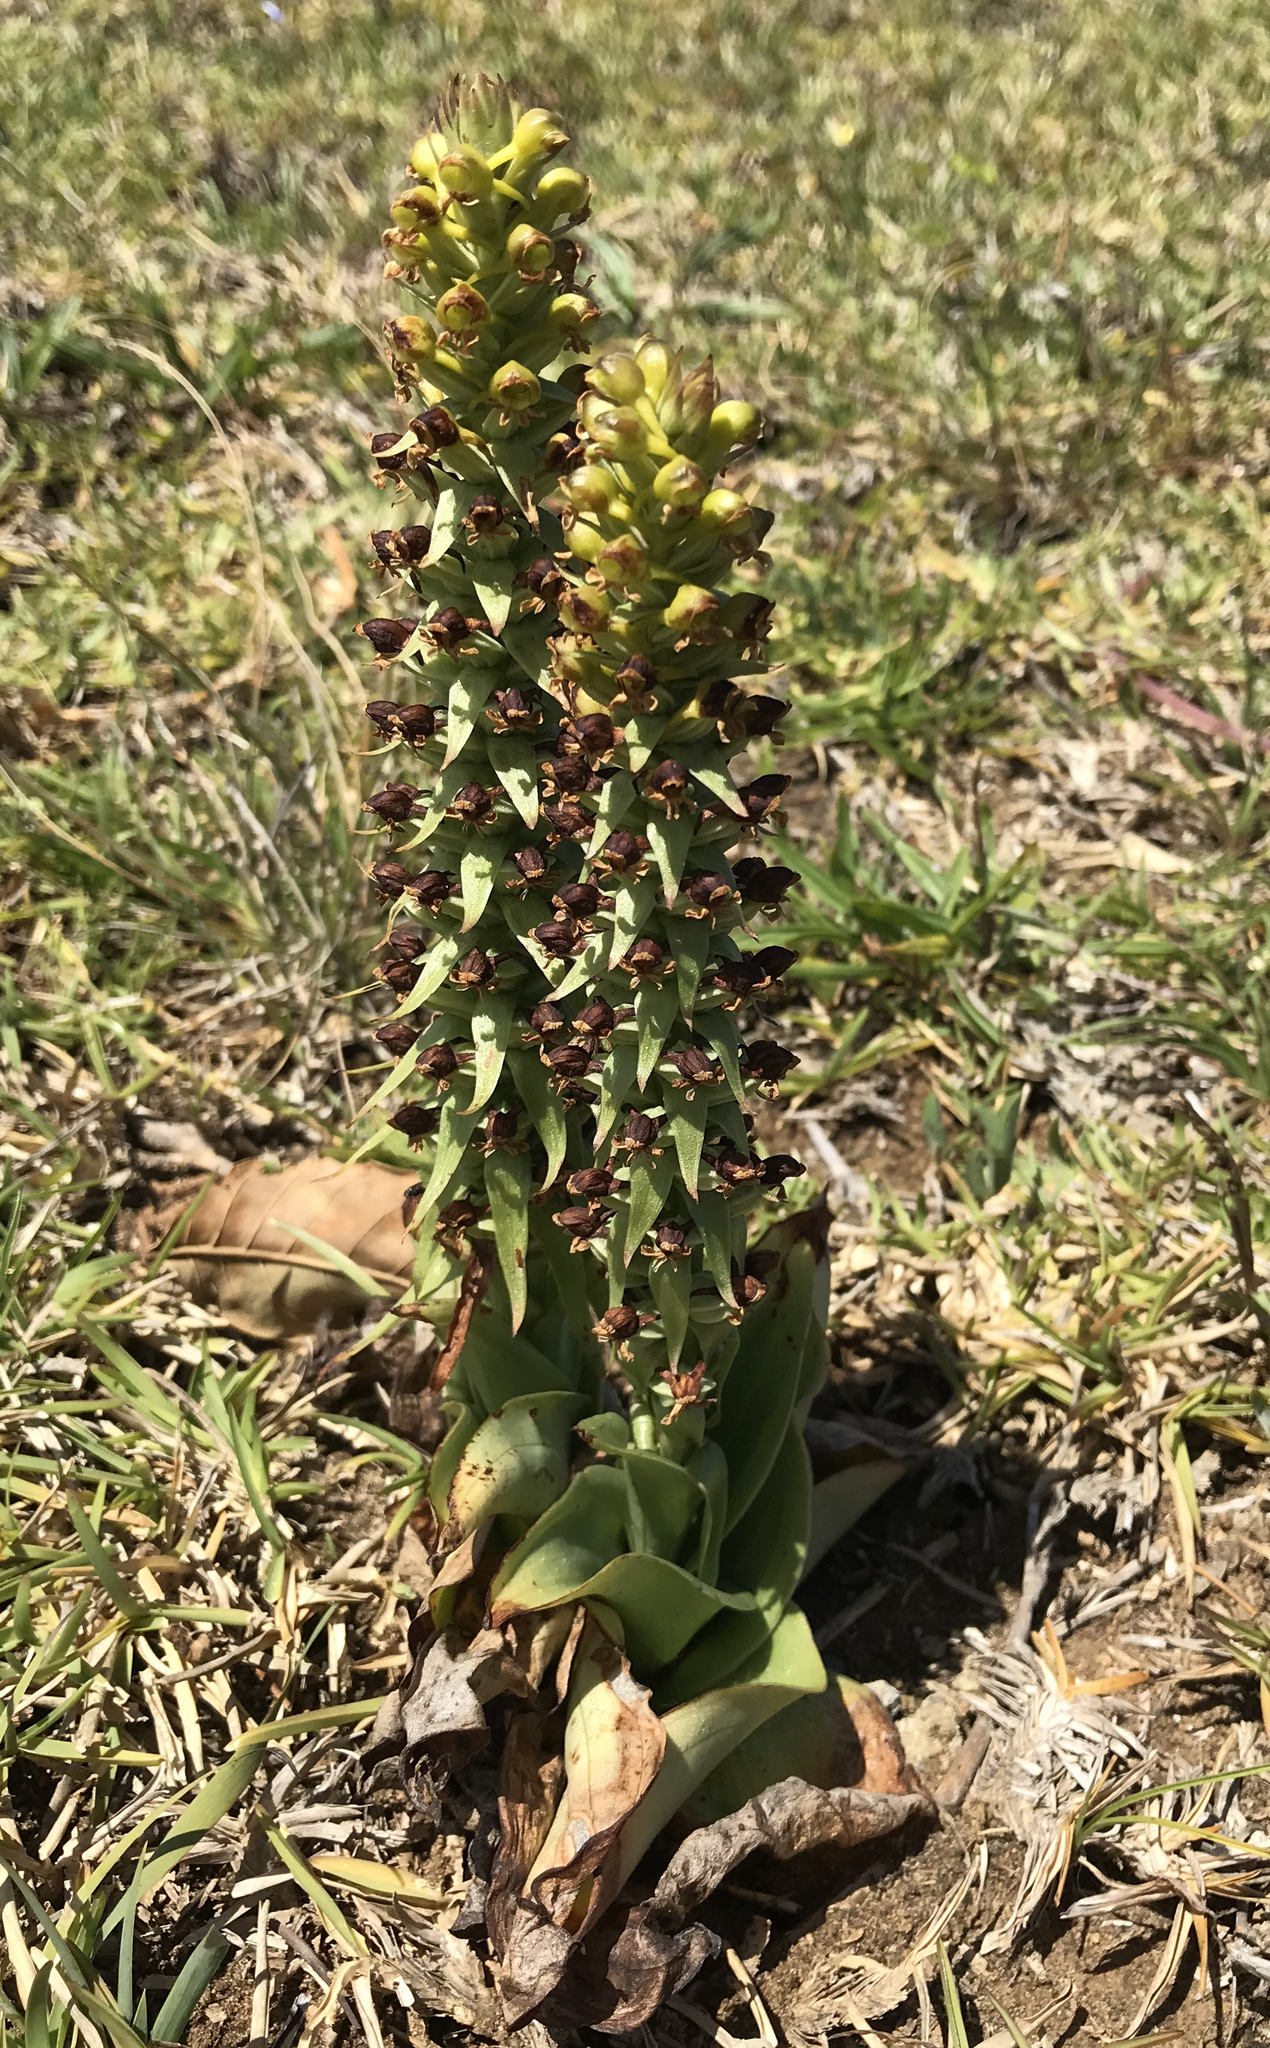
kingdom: Plantae
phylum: Tracheophyta
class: Liliopsida
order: Asparagales
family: Orchidaceae
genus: Satyrium
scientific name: Satyrium parviflorum
